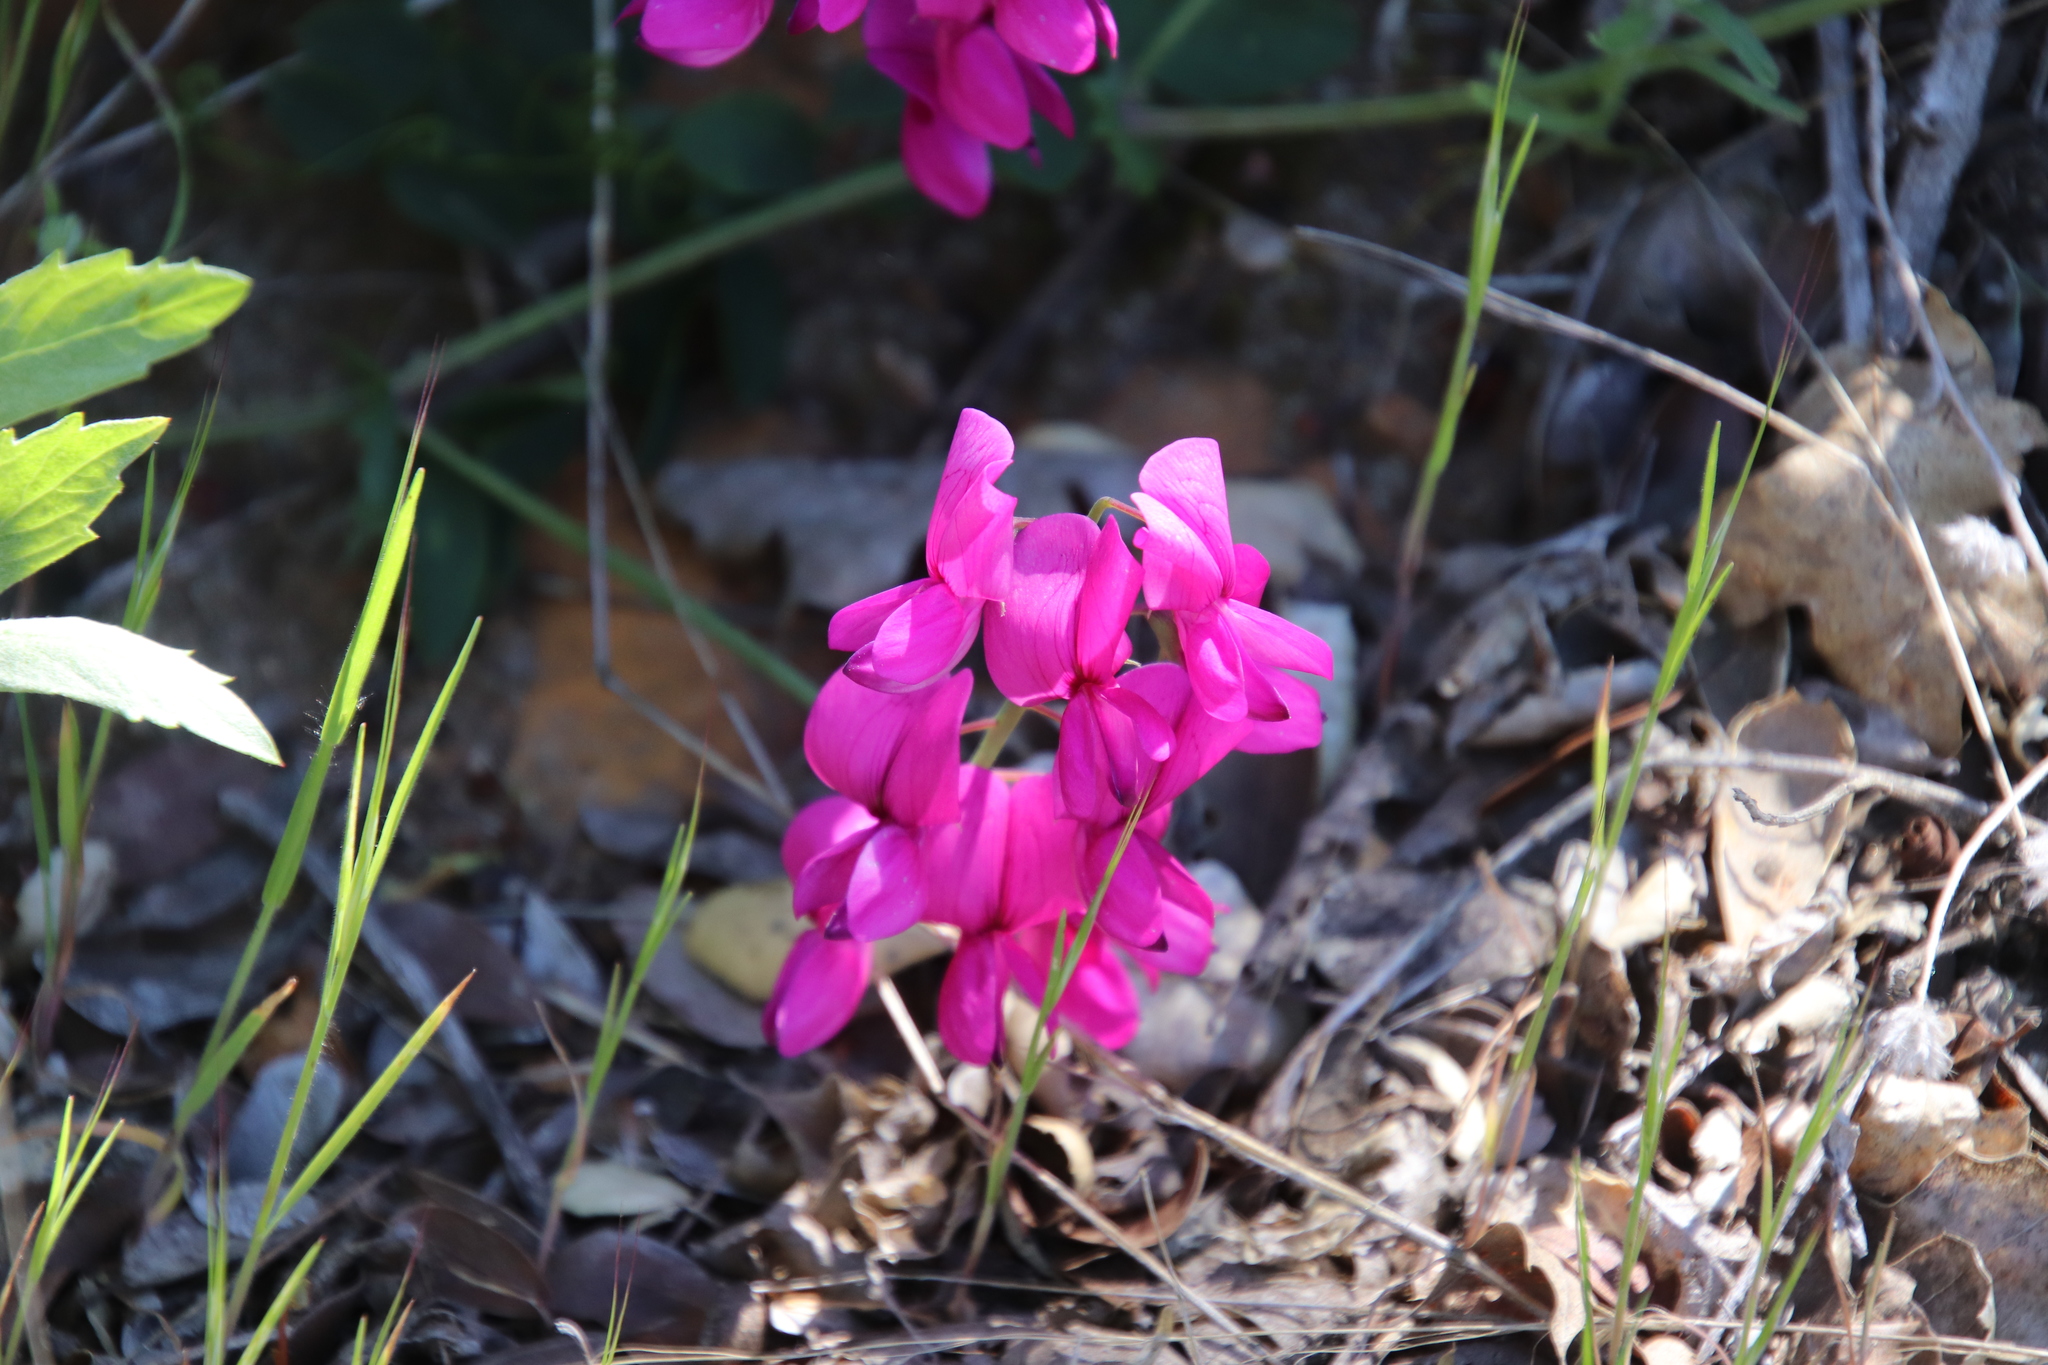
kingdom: Plantae
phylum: Tracheophyta
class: Magnoliopsida
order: Fabales
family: Fabaceae
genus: Lathyrus
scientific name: Lathyrus vestitus
